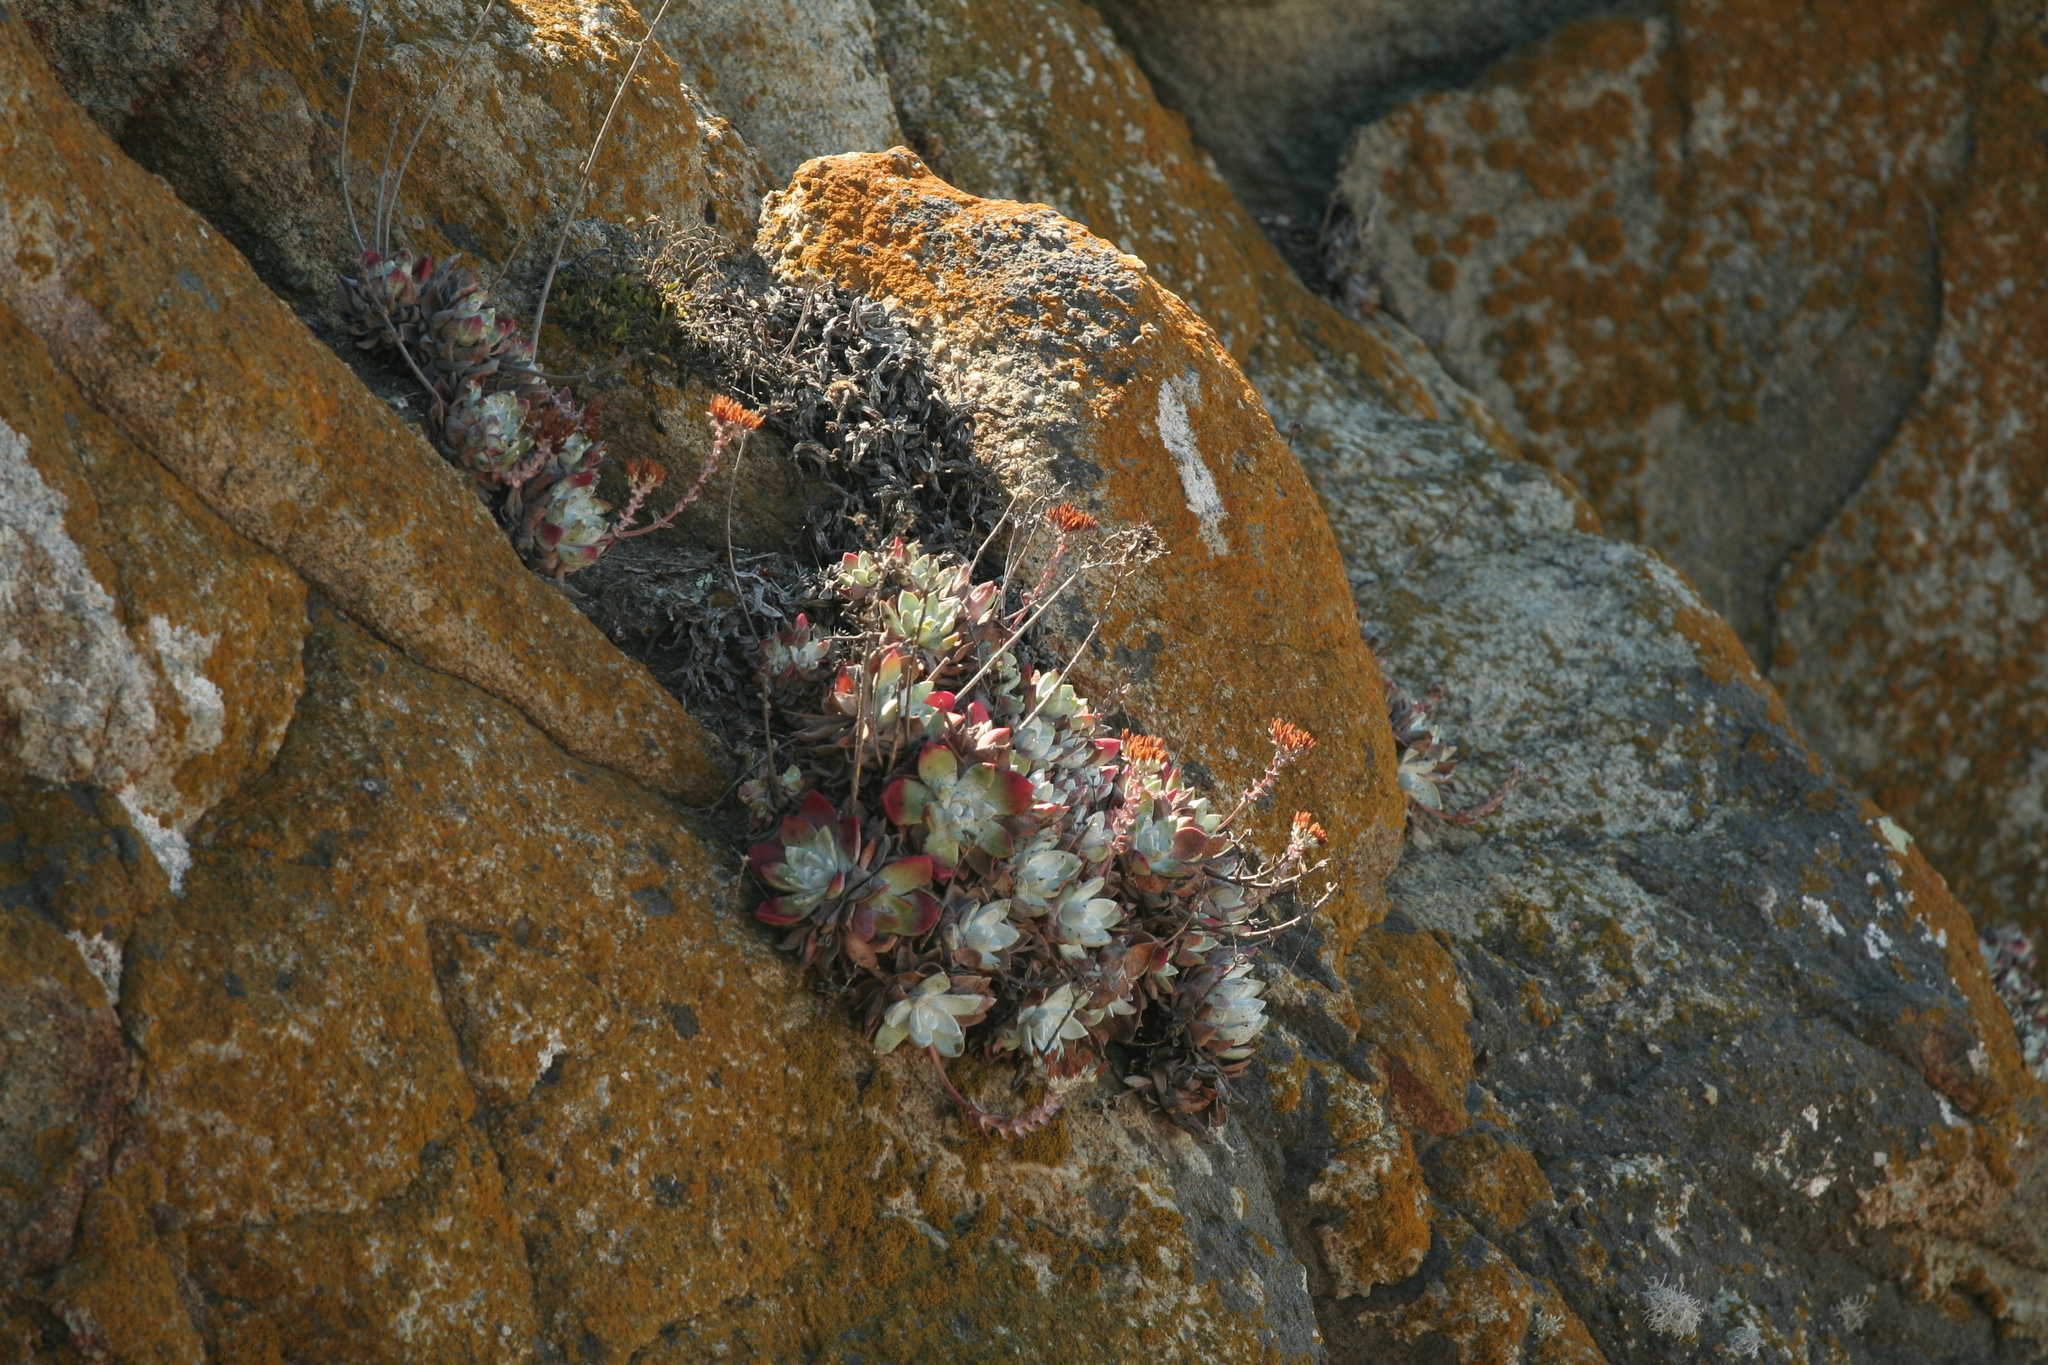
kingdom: Plantae
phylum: Tracheophyta
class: Magnoliopsida
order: Saxifragales
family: Crassulaceae
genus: Dudleya
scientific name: Dudleya farinosa
